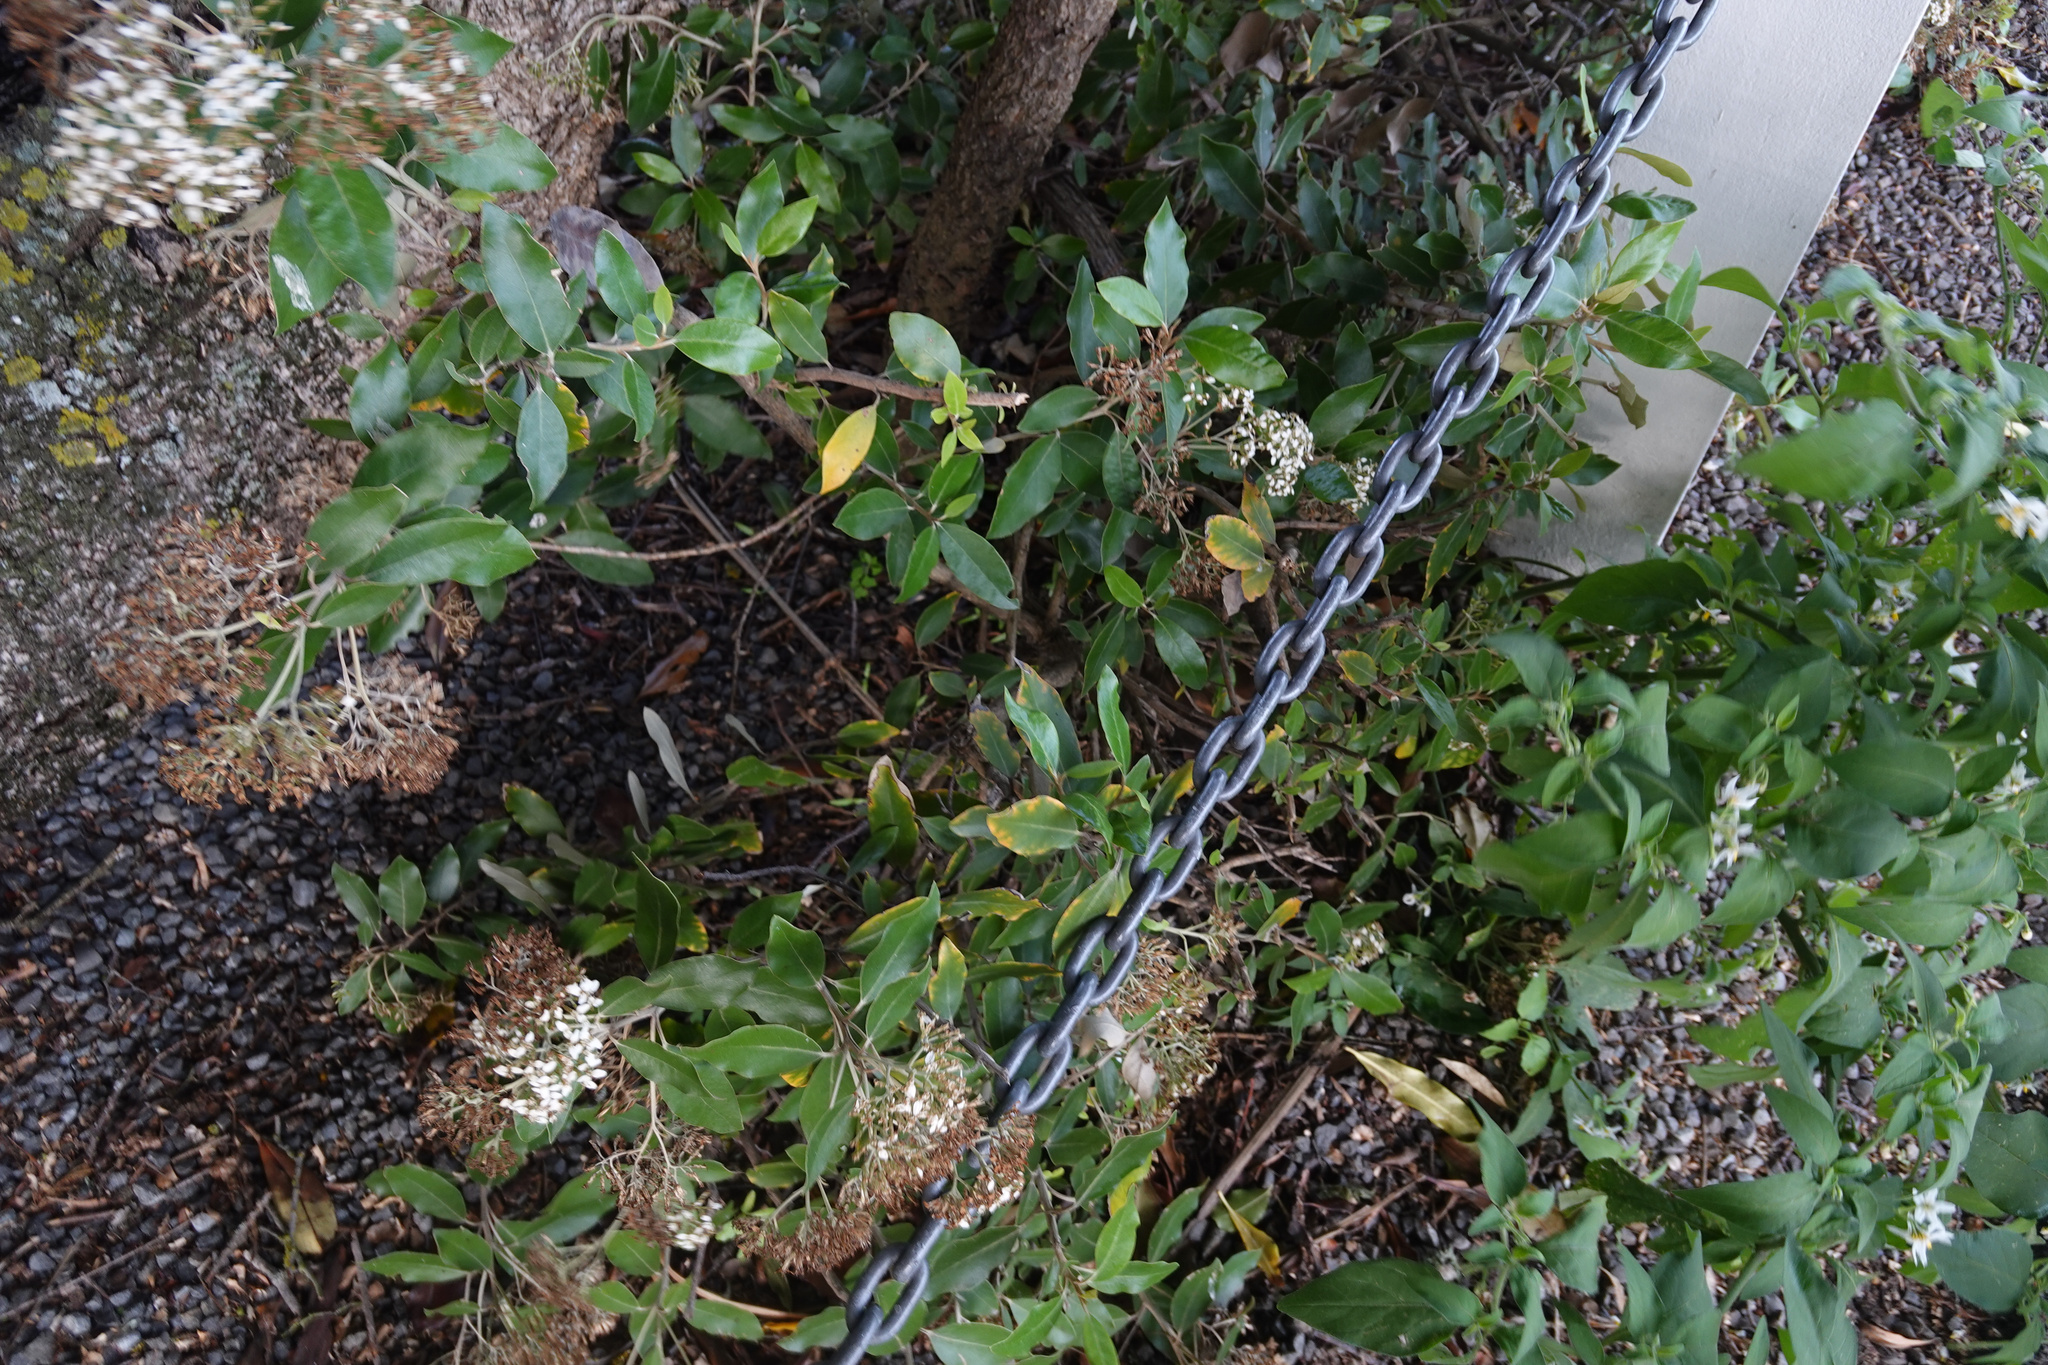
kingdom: Plantae
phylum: Tracheophyta
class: Magnoliopsida
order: Asterales
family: Asteraceae
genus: Olearia
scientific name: Olearia avicenniifolia
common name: Mangrove-leaf daisybush
